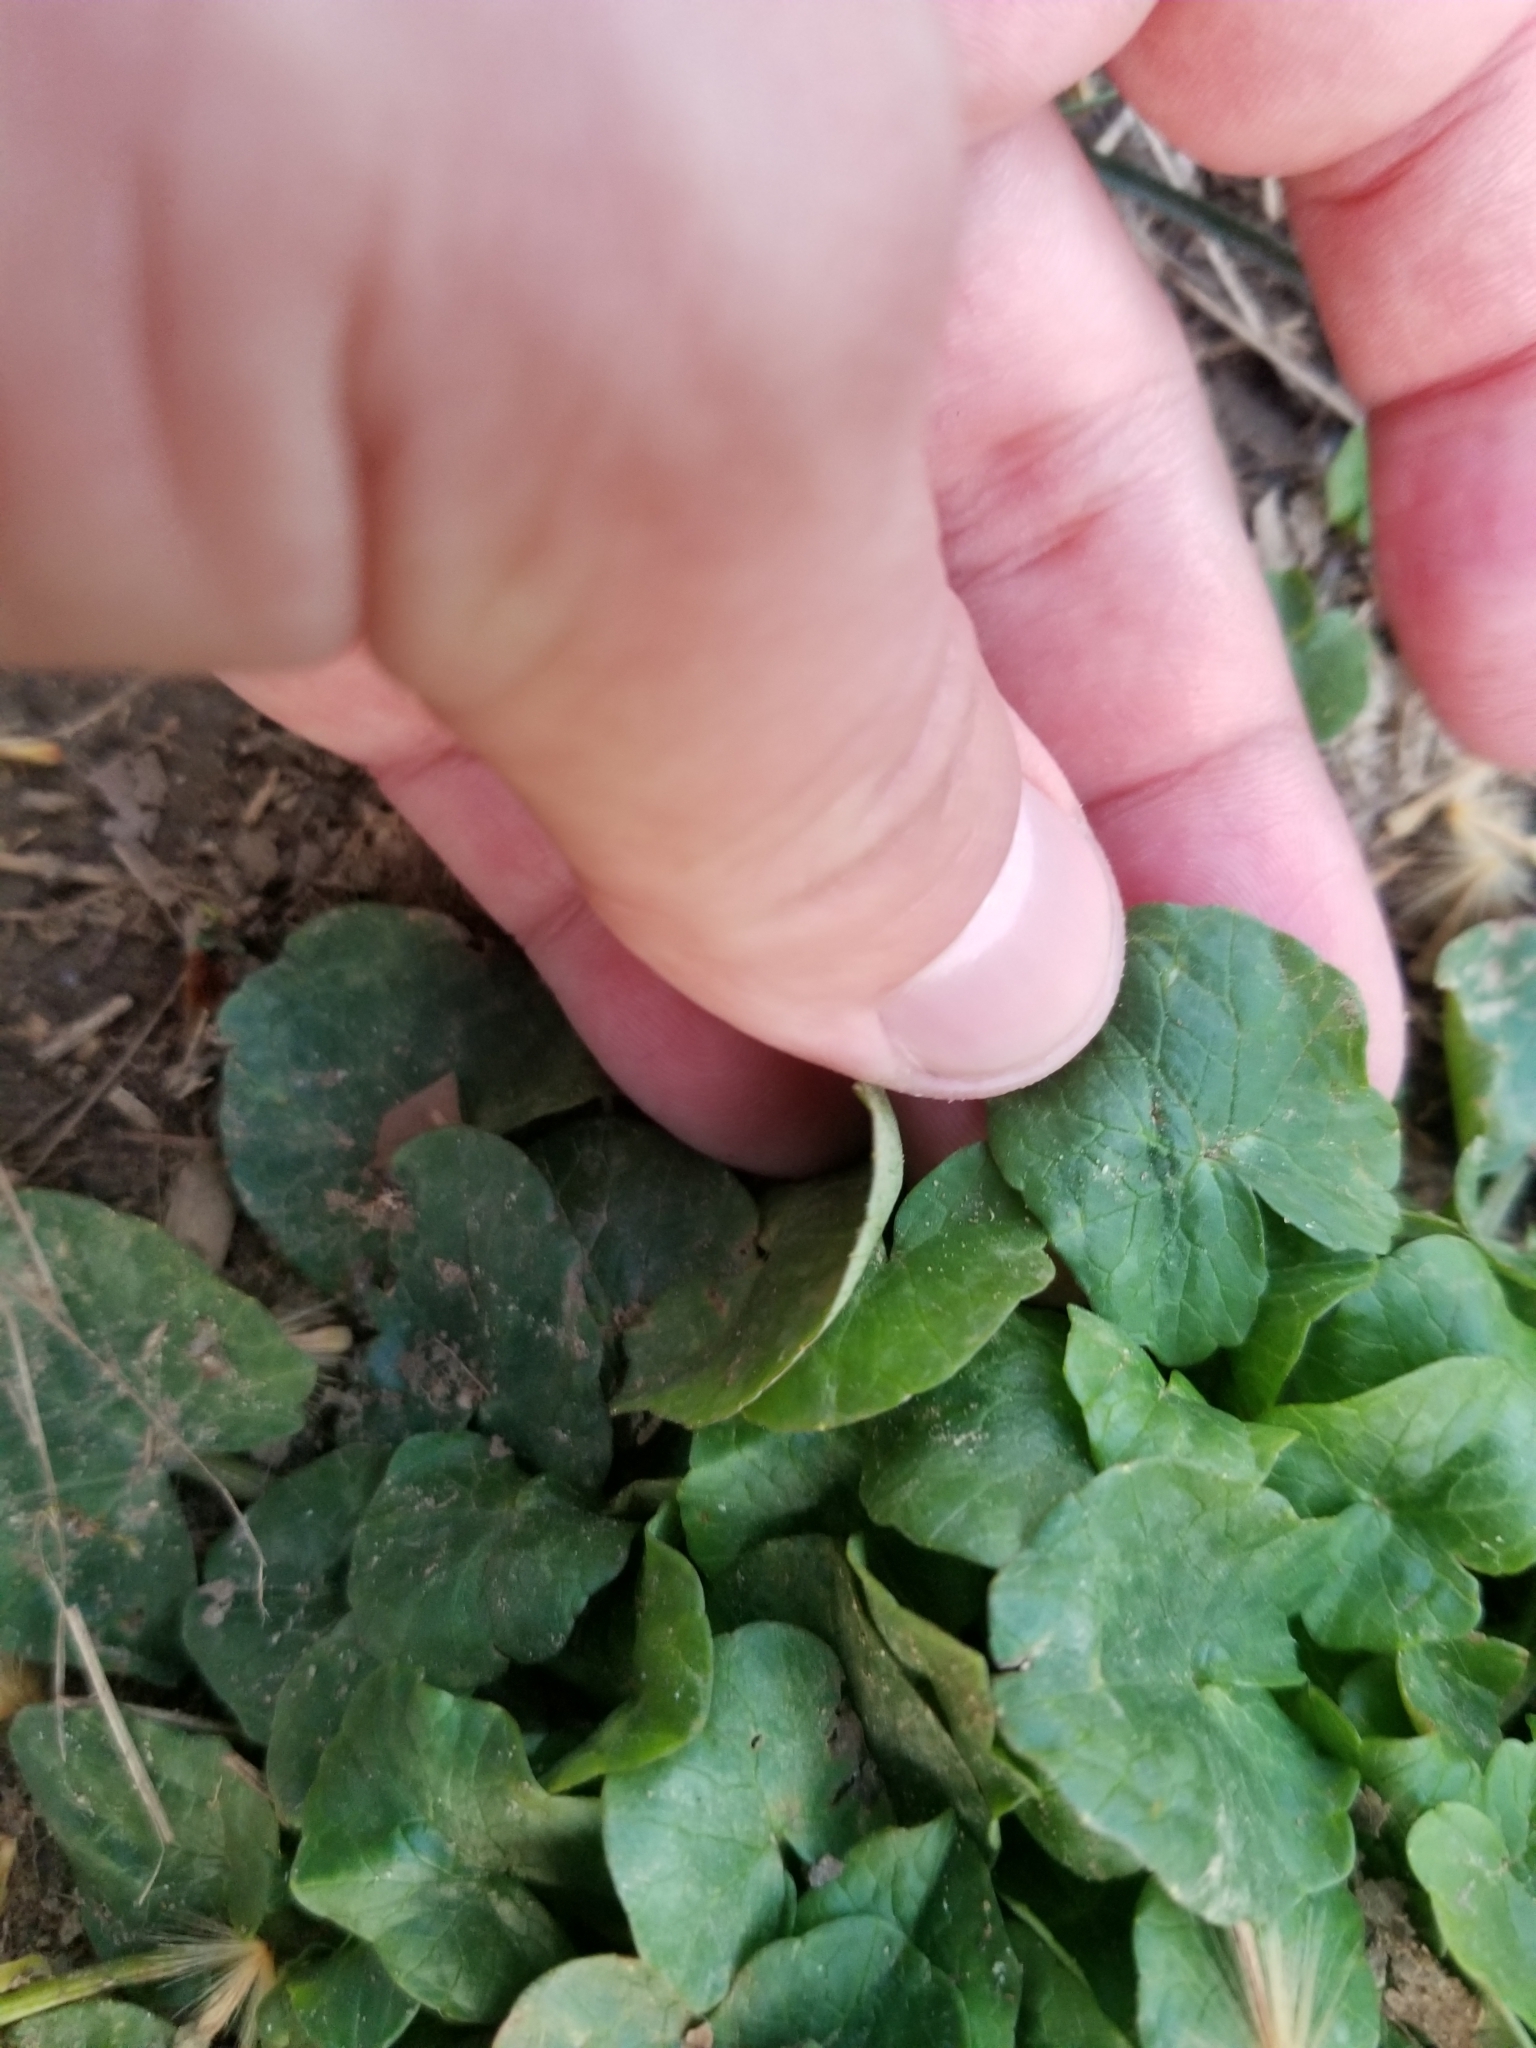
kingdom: Plantae
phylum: Tracheophyta
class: Magnoliopsida
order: Ranunculales
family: Ranunculaceae
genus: Ficaria
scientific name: Ficaria verna
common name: Lesser celandine
